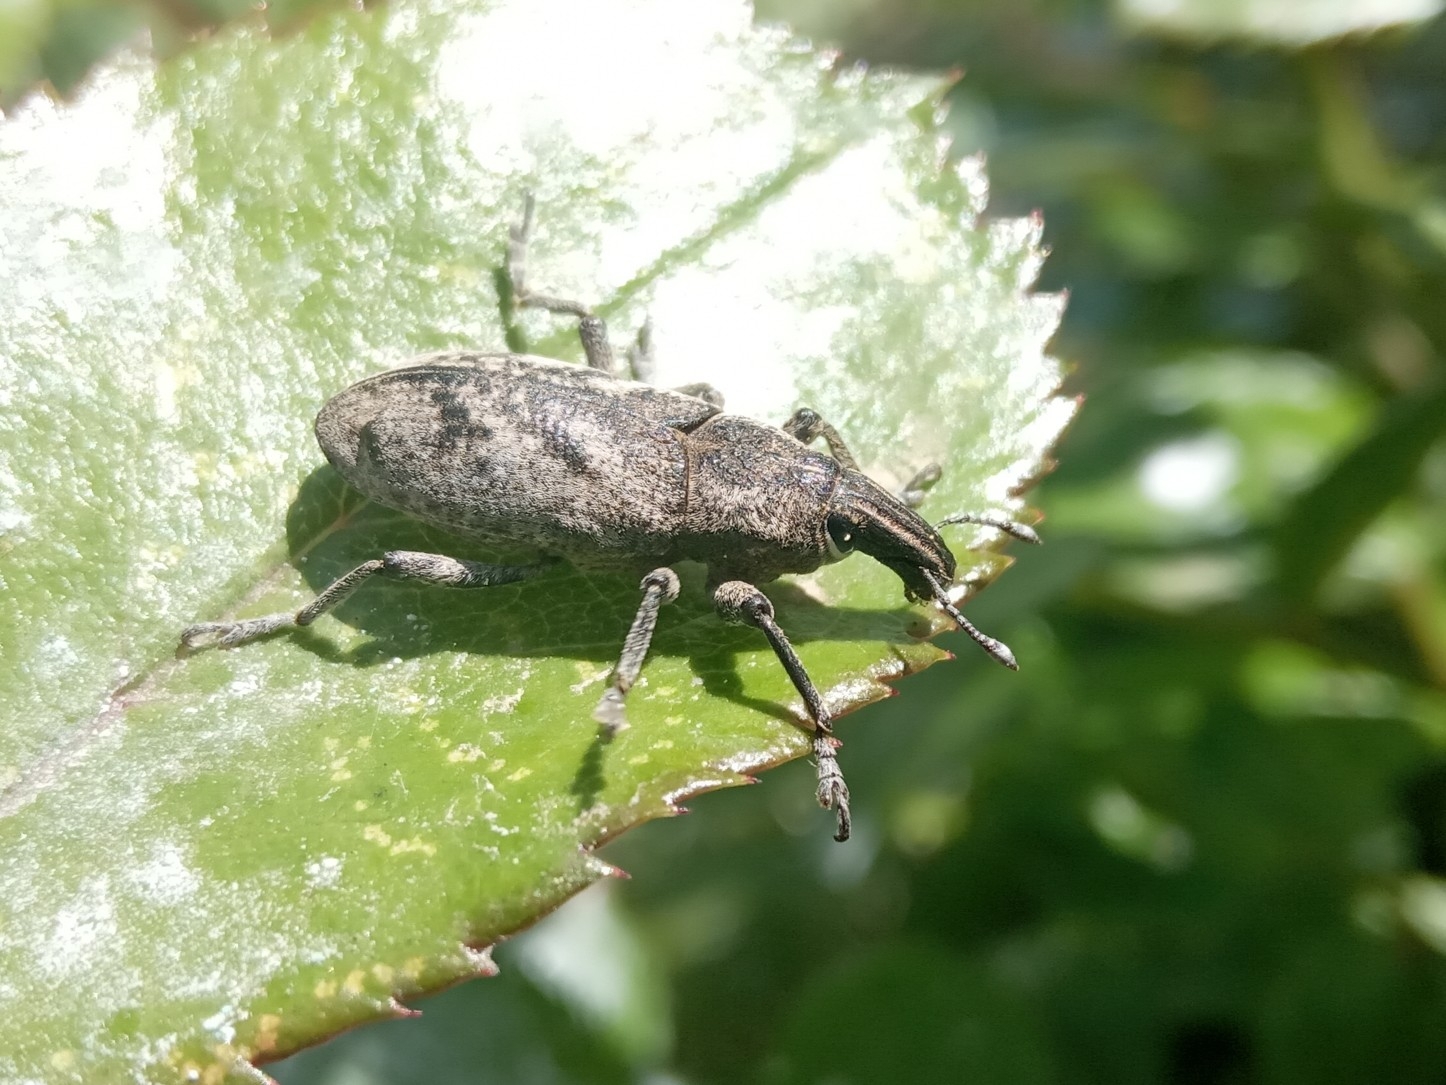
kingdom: Animalia
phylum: Arthropoda
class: Insecta
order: Coleoptera
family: Curculionidae
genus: Cleonis
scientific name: Cleonis pigra
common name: Large thistle weevil
